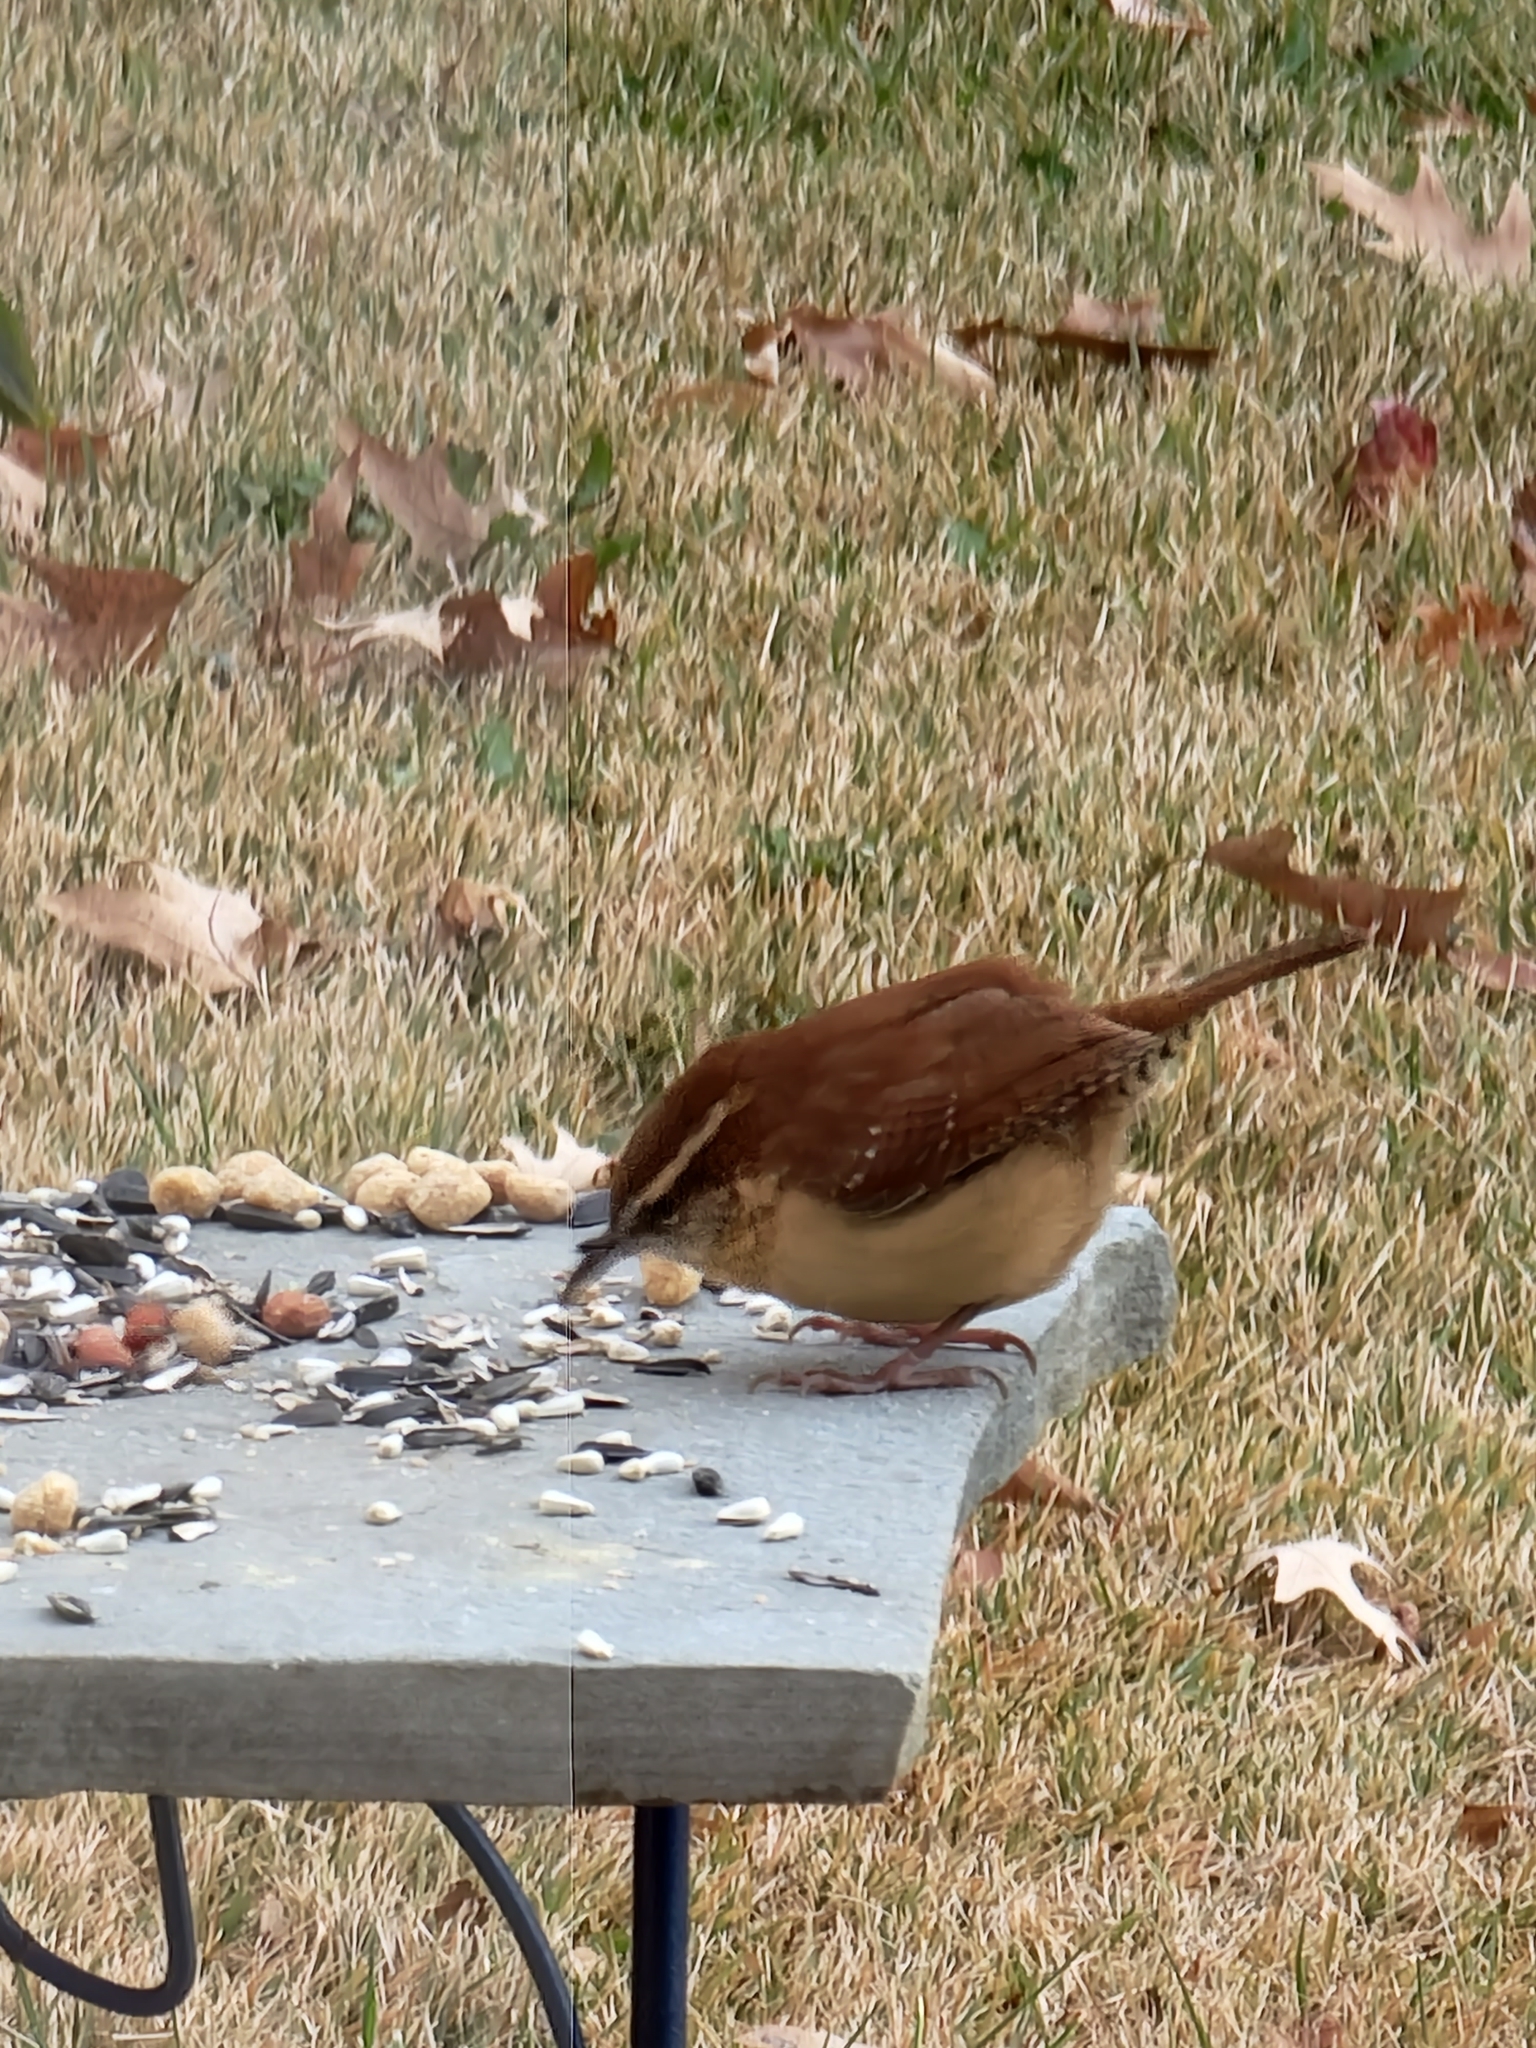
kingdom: Animalia
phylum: Chordata
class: Aves
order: Passeriformes
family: Troglodytidae
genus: Thryothorus
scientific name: Thryothorus ludovicianus
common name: Carolina wren
